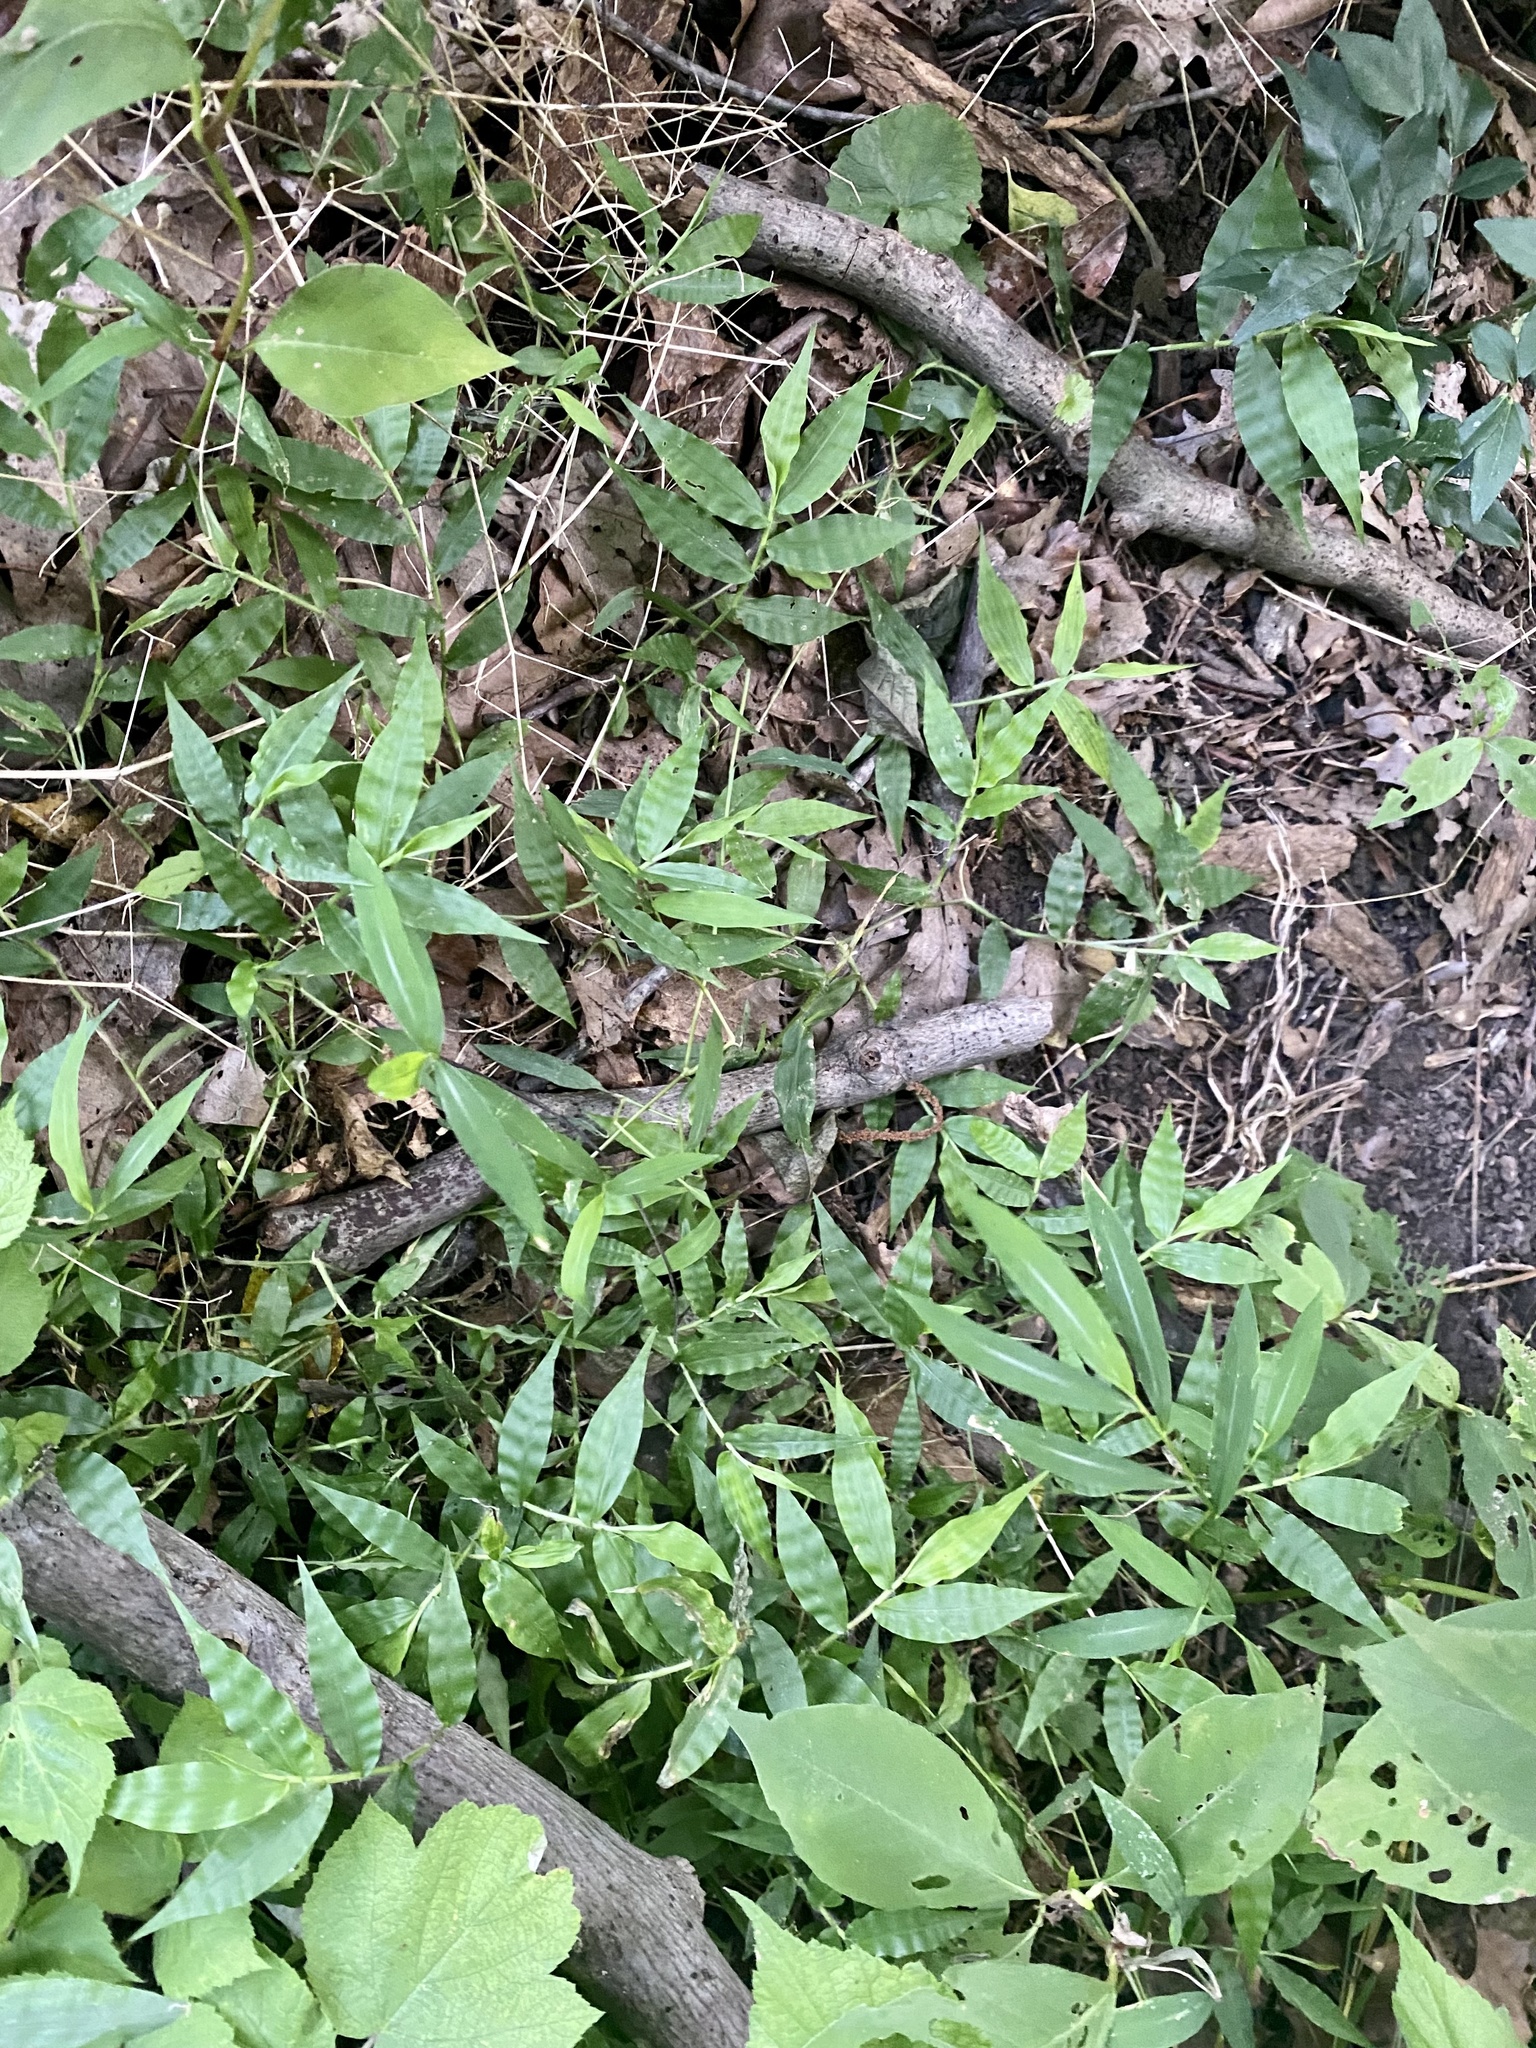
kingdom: Plantae
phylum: Tracheophyta
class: Liliopsida
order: Poales
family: Poaceae
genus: Oplismenus
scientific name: Oplismenus undulatifolius
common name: Wavyleaf basketgrass
